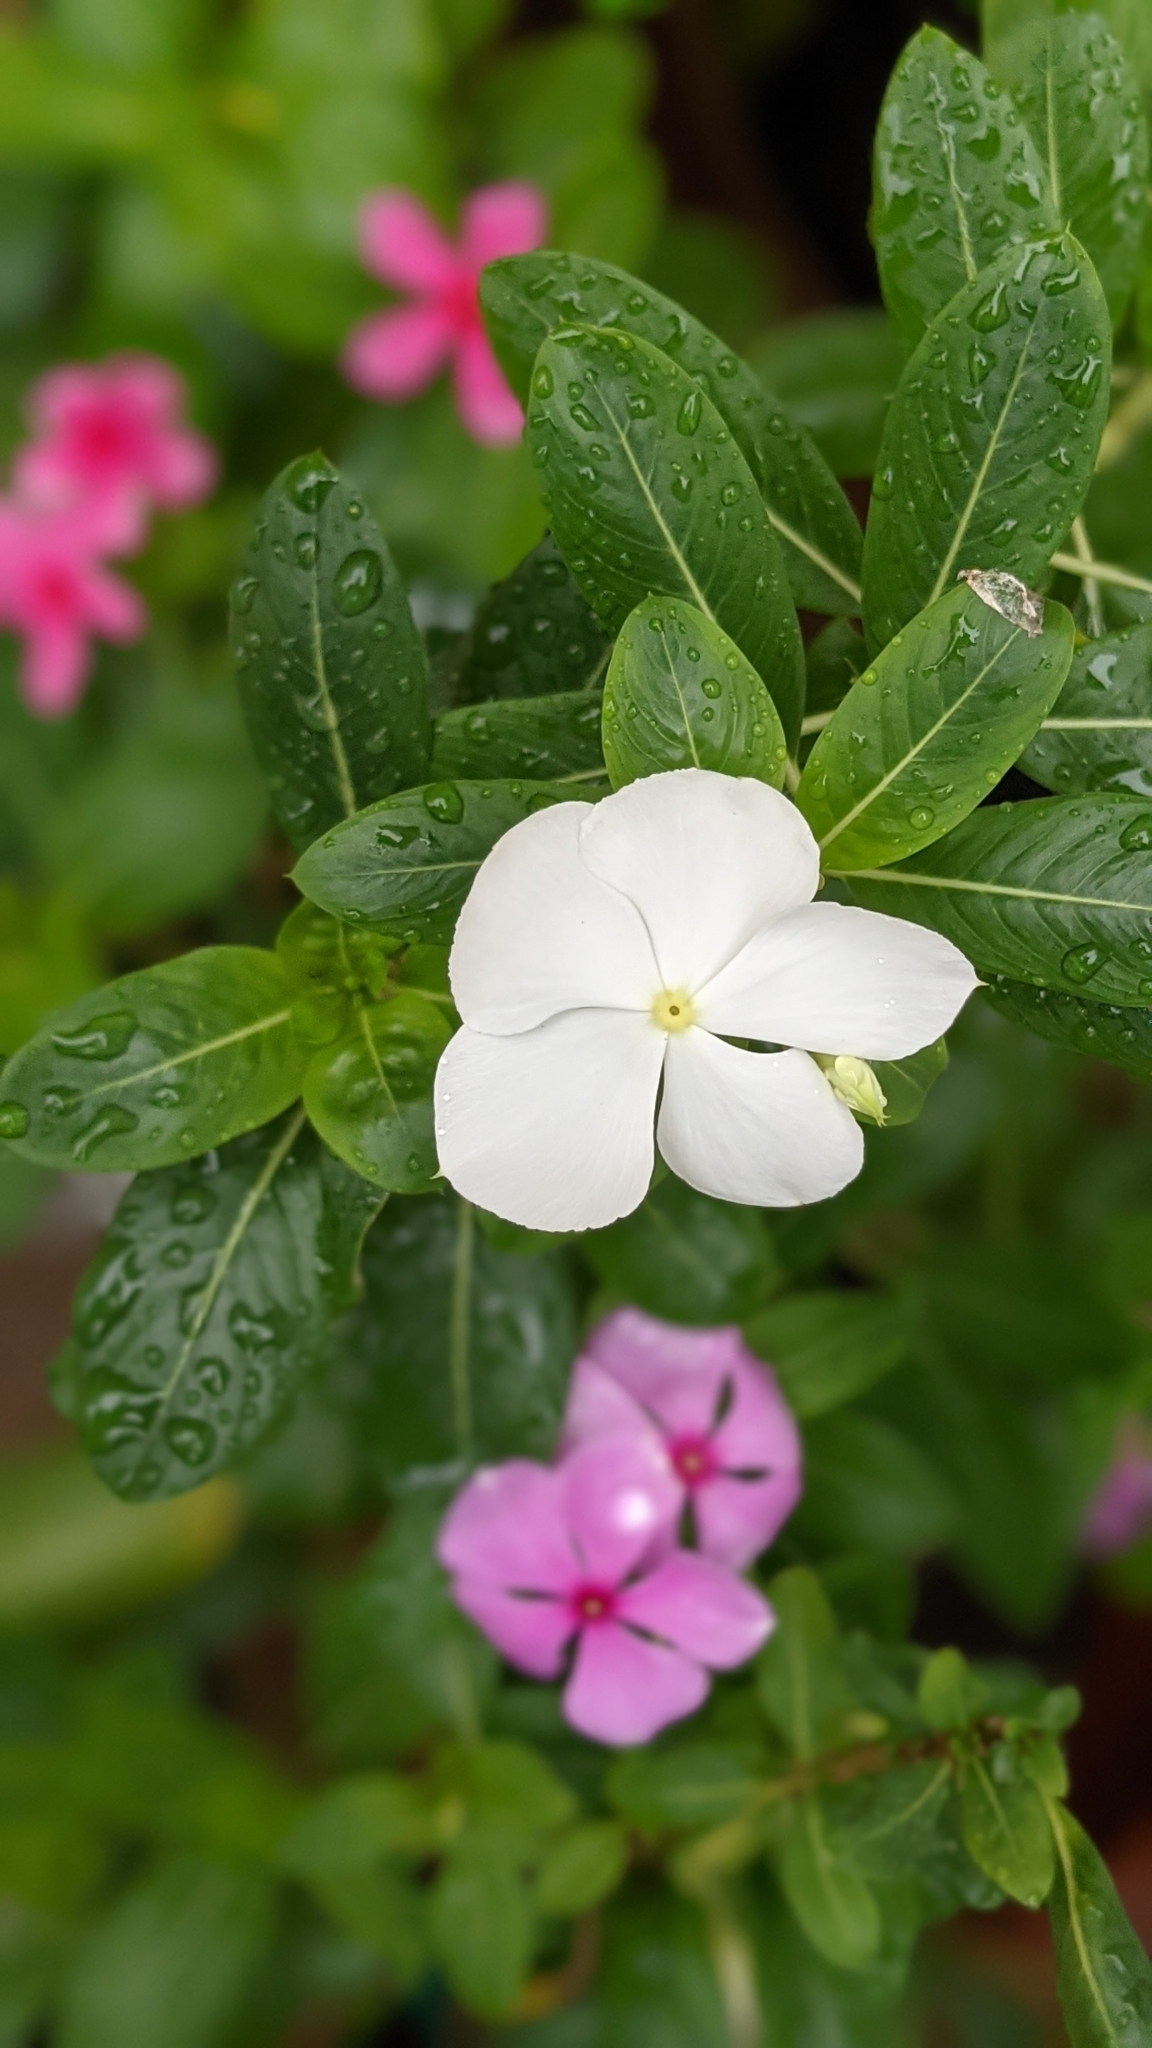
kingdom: Plantae
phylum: Tracheophyta
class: Magnoliopsida
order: Gentianales
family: Apocynaceae
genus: Catharanthus
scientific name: Catharanthus roseus
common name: Madagascar periwinkle
